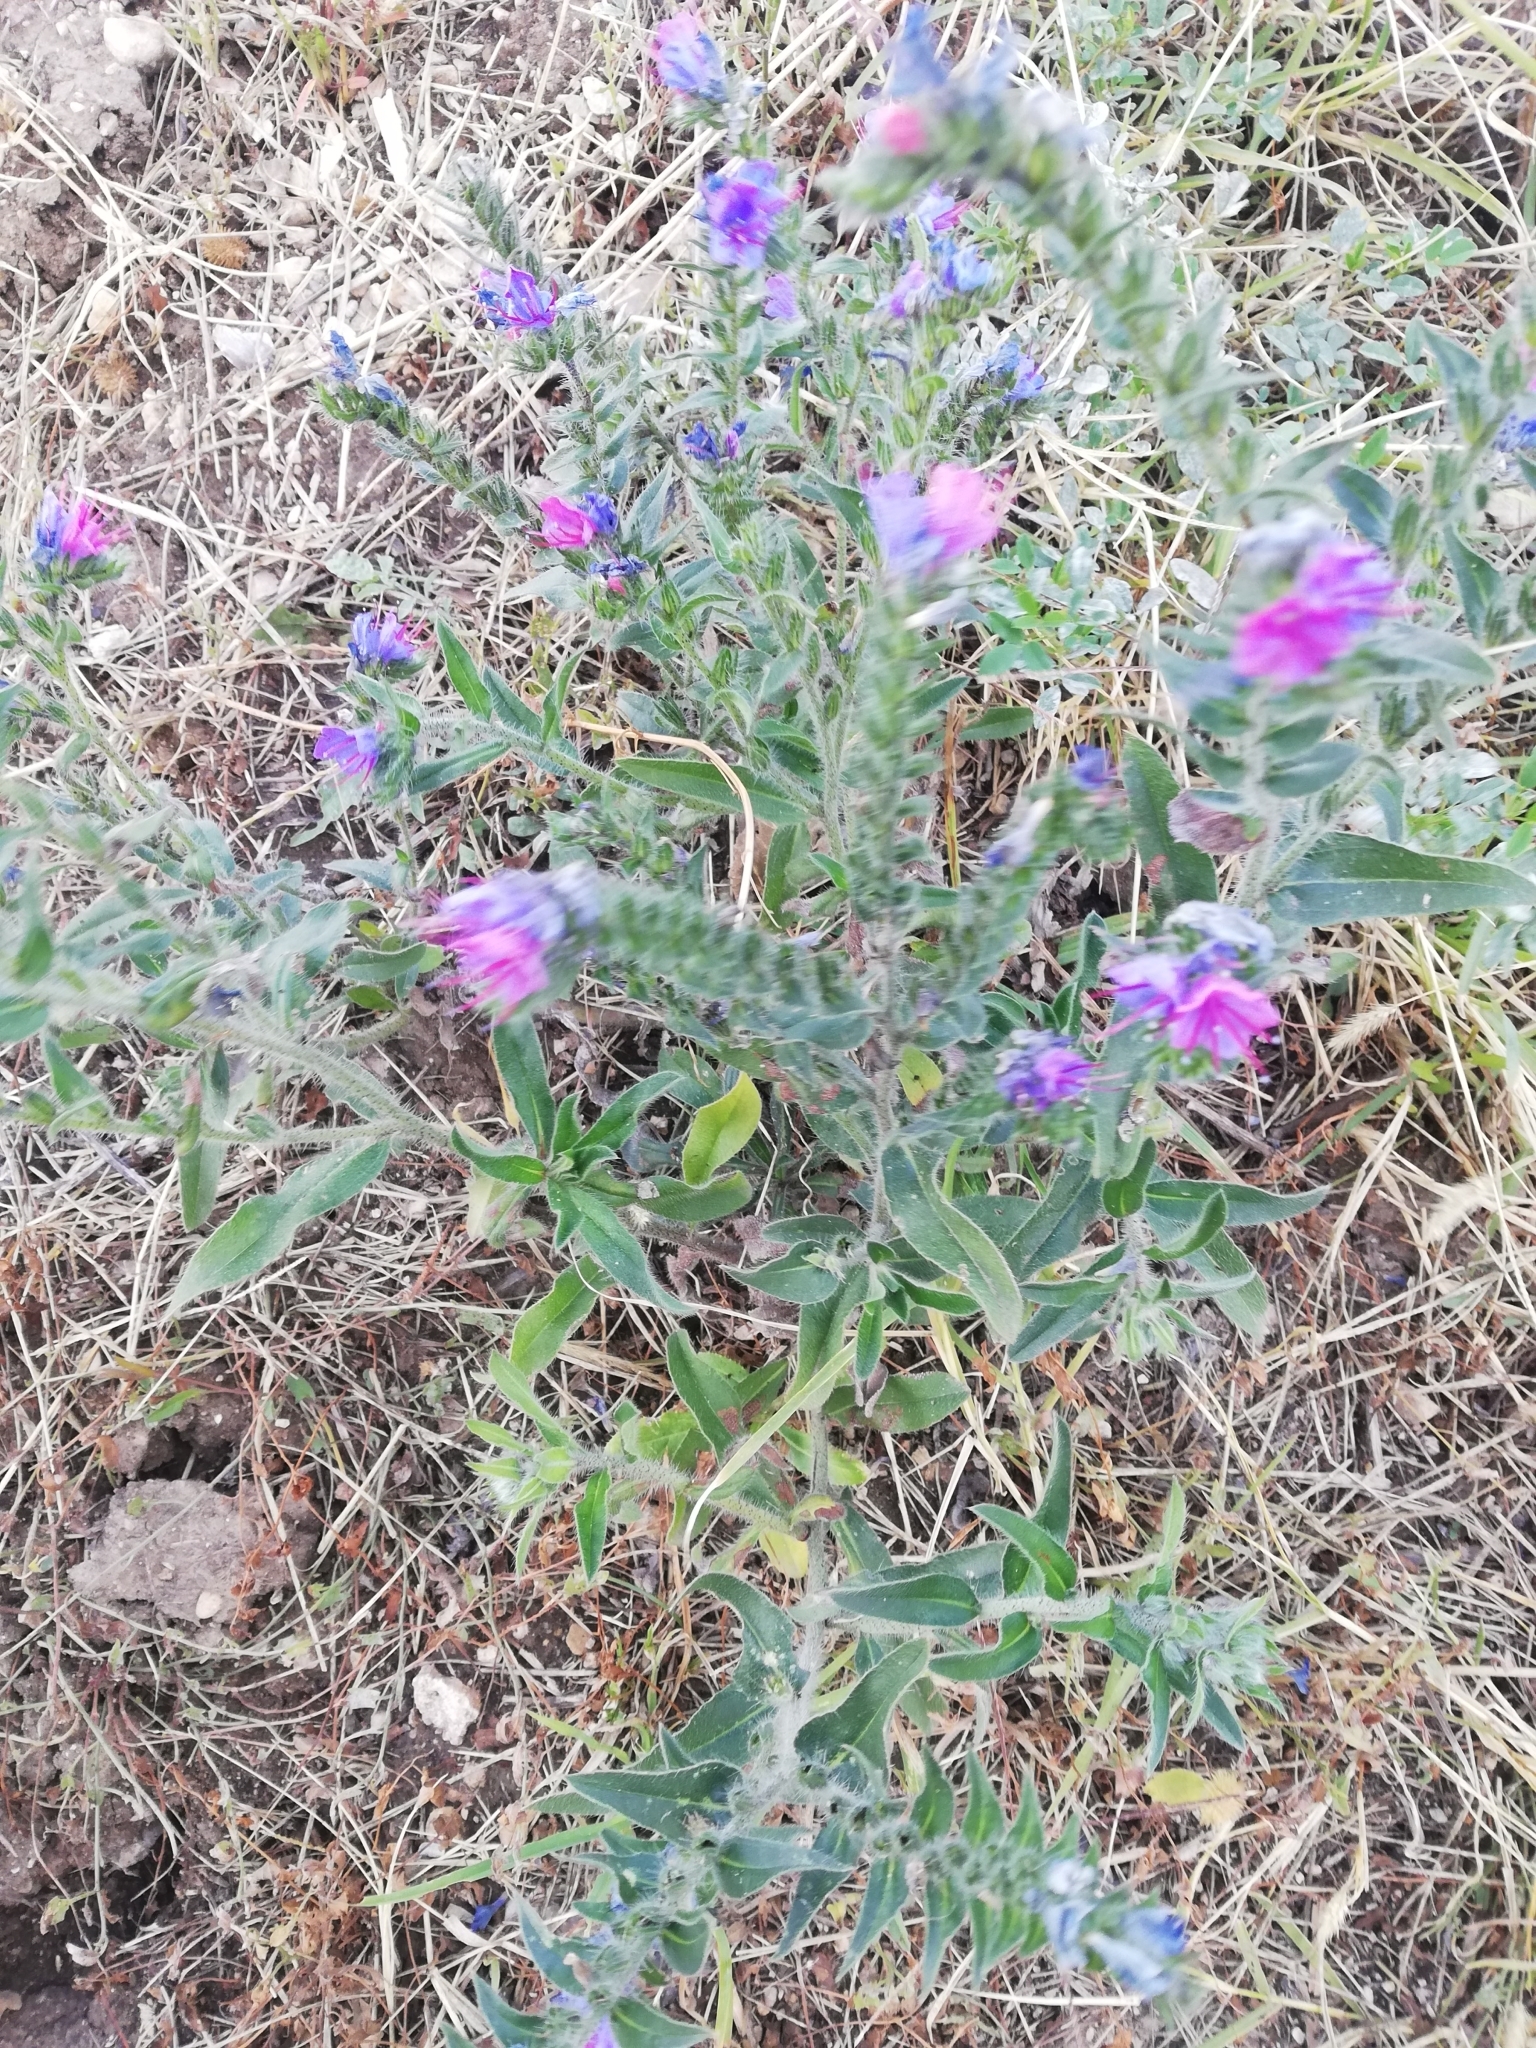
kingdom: Plantae
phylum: Tracheophyta
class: Magnoliopsida
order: Boraginales
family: Boraginaceae
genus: Echium
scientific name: Echium vulgare
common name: Common viper's bugloss
